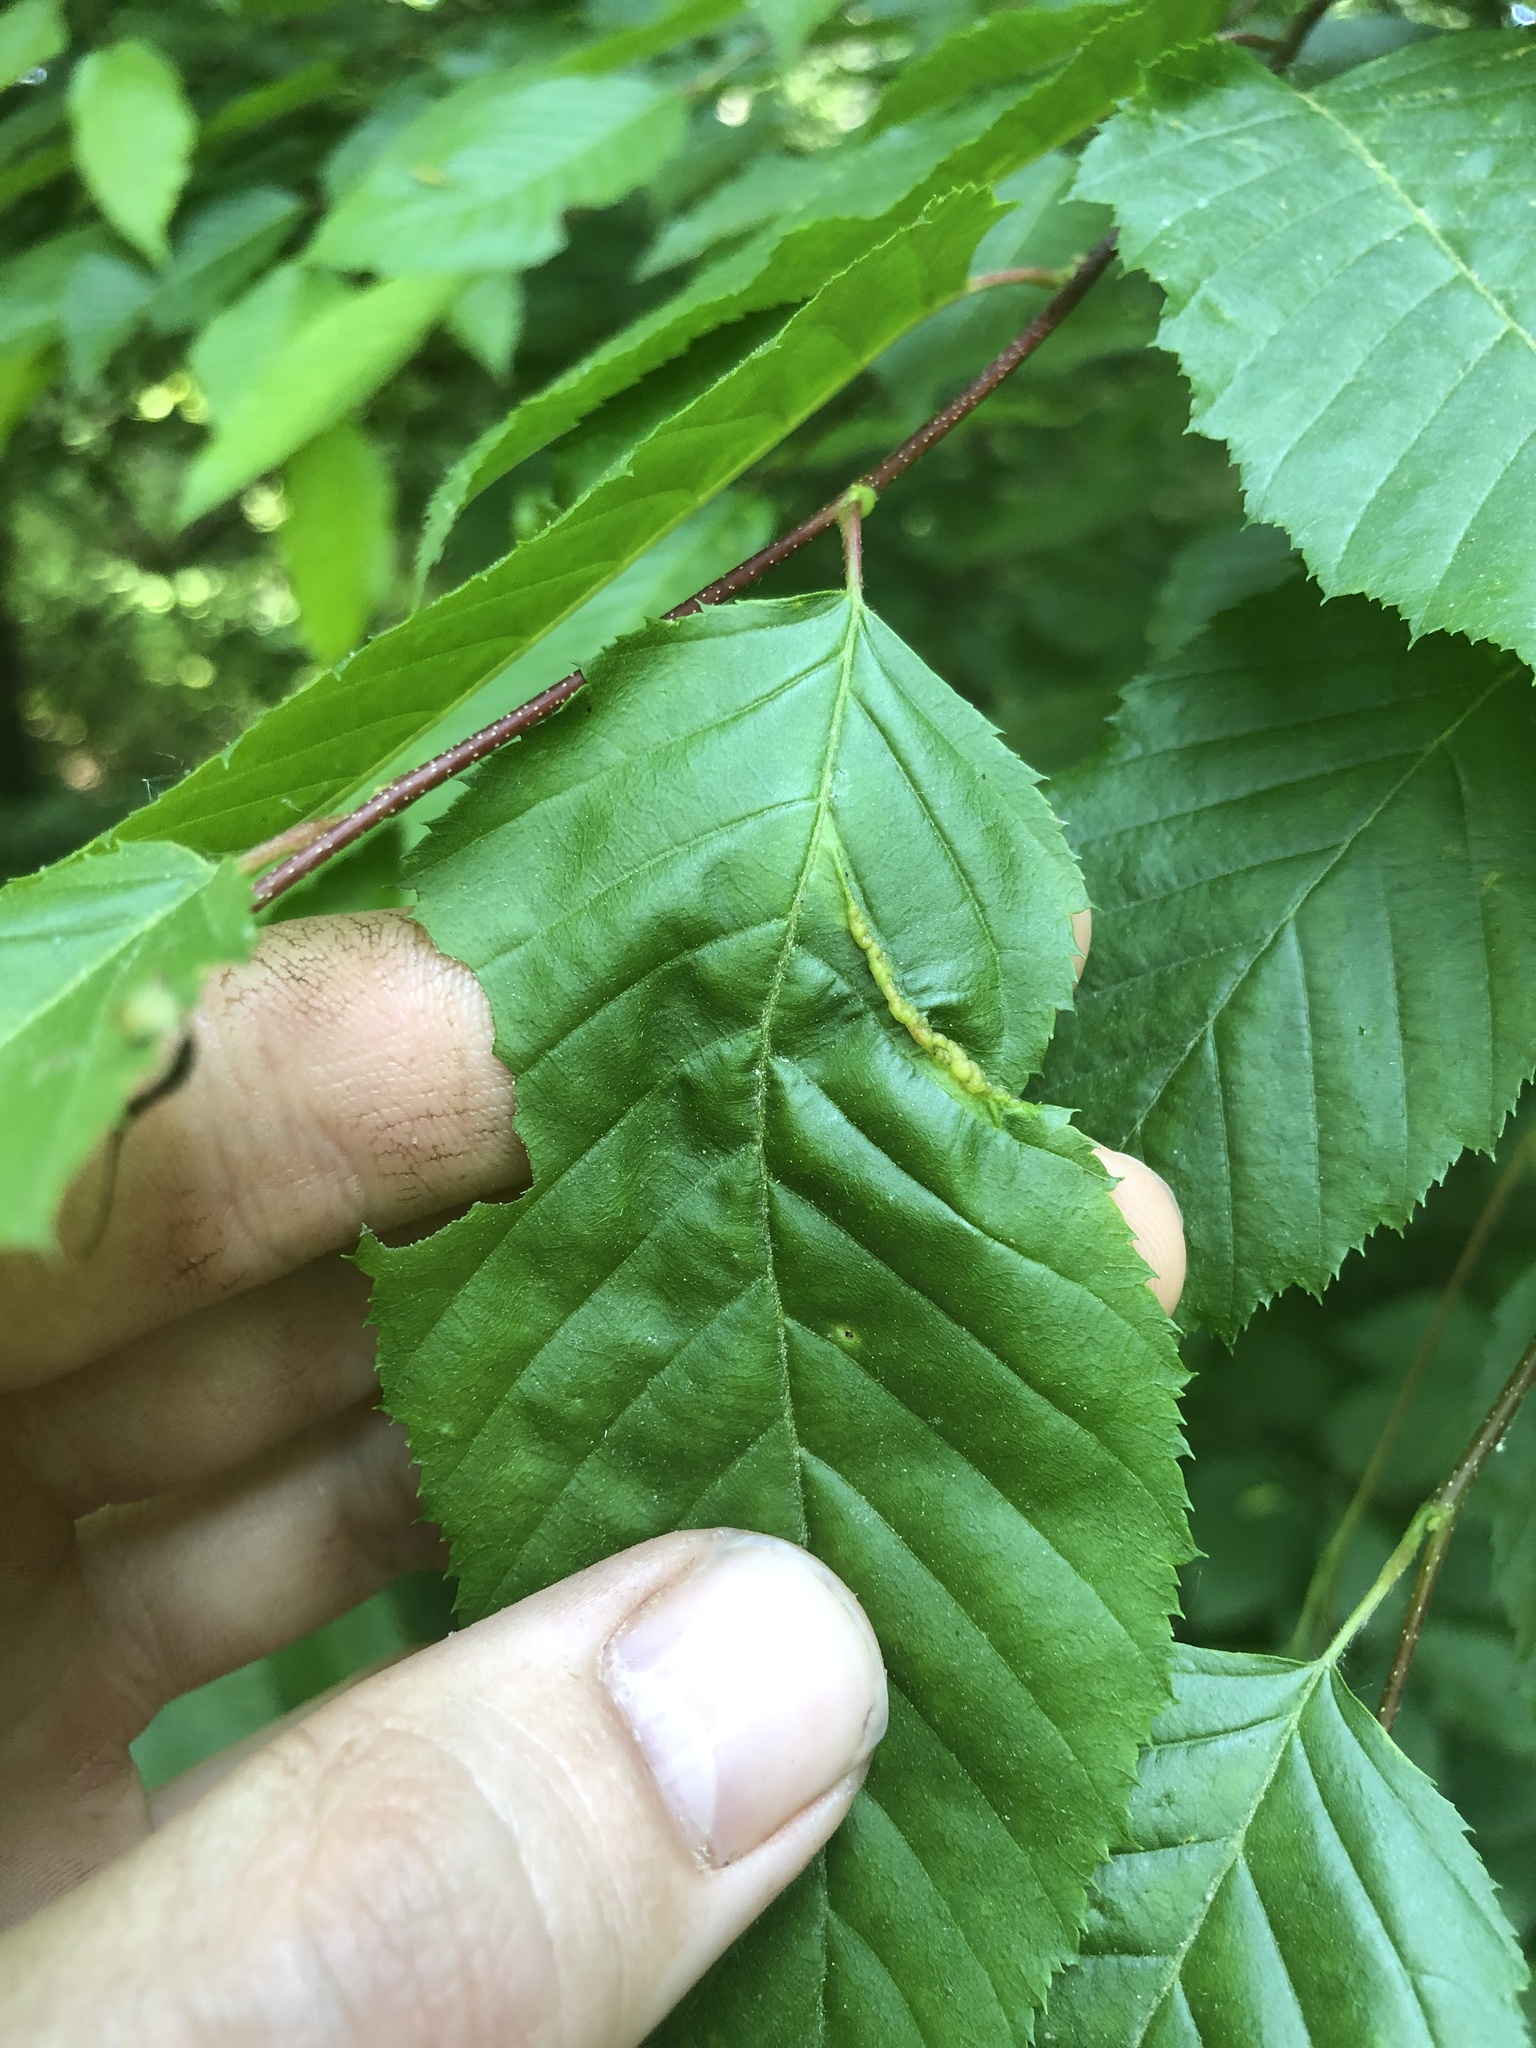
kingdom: Animalia
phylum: Arthropoda
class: Insecta
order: Diptera
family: Cecidomyiidae
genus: Dasineura
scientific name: Dasineura pudibunda
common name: Hornbeam leaf gall midge
